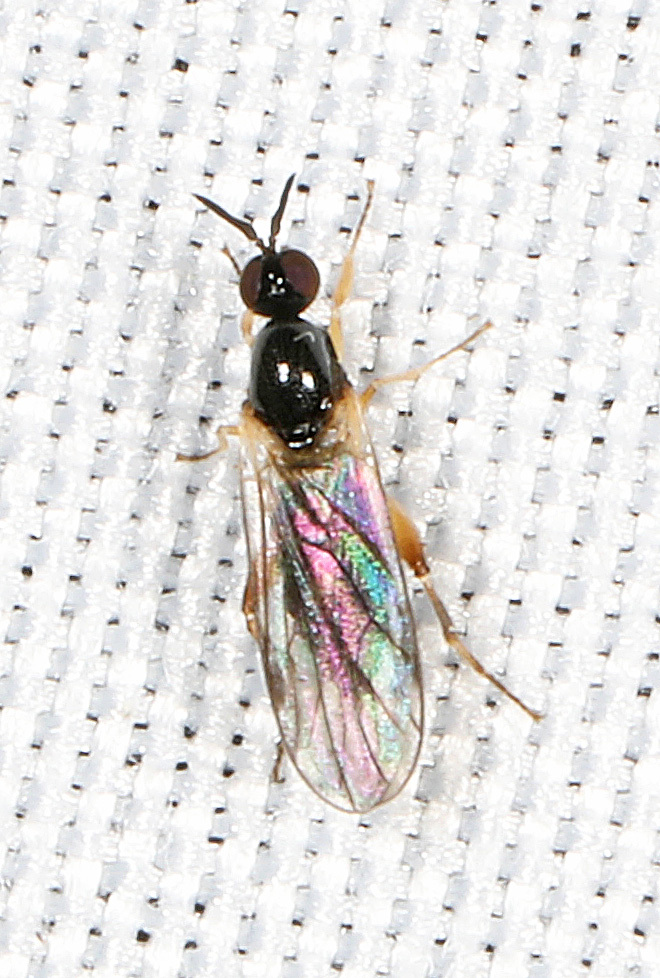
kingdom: Animalia
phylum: Arthropoda
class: Insecta
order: Diptera
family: Hybotidae
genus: Oedalea
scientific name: Oedalea ohioensis
